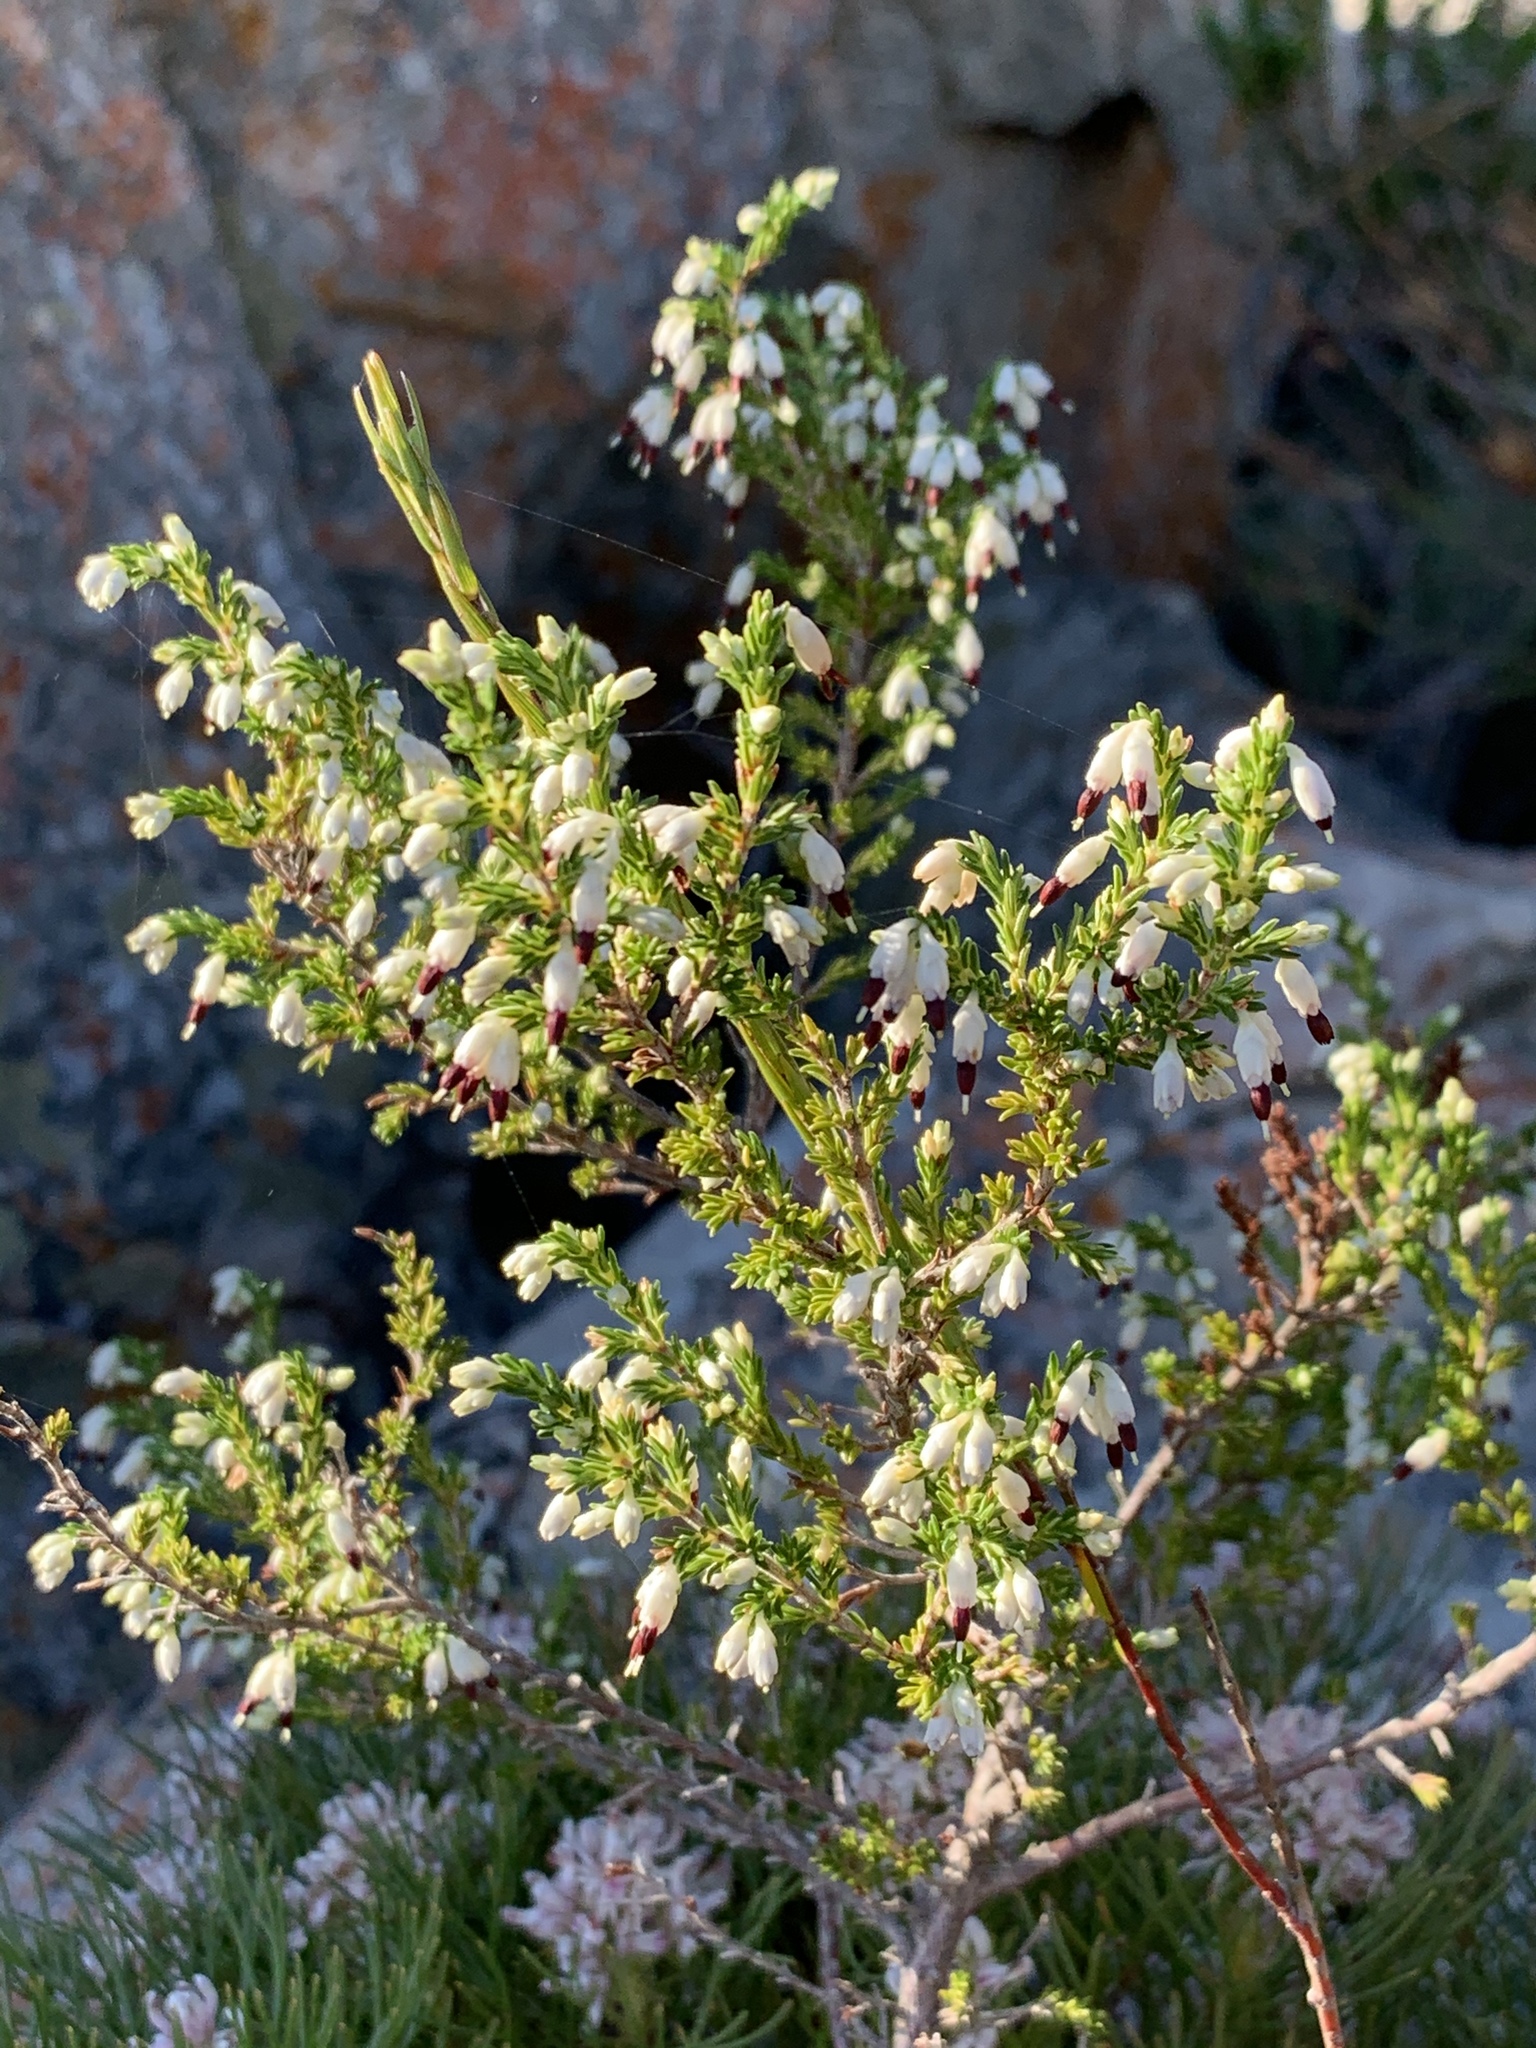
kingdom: Plantae
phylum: Tracheophyta
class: Magnoliopsida
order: Ericales
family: Ericaceae
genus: Erica
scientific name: Erica imbricata
